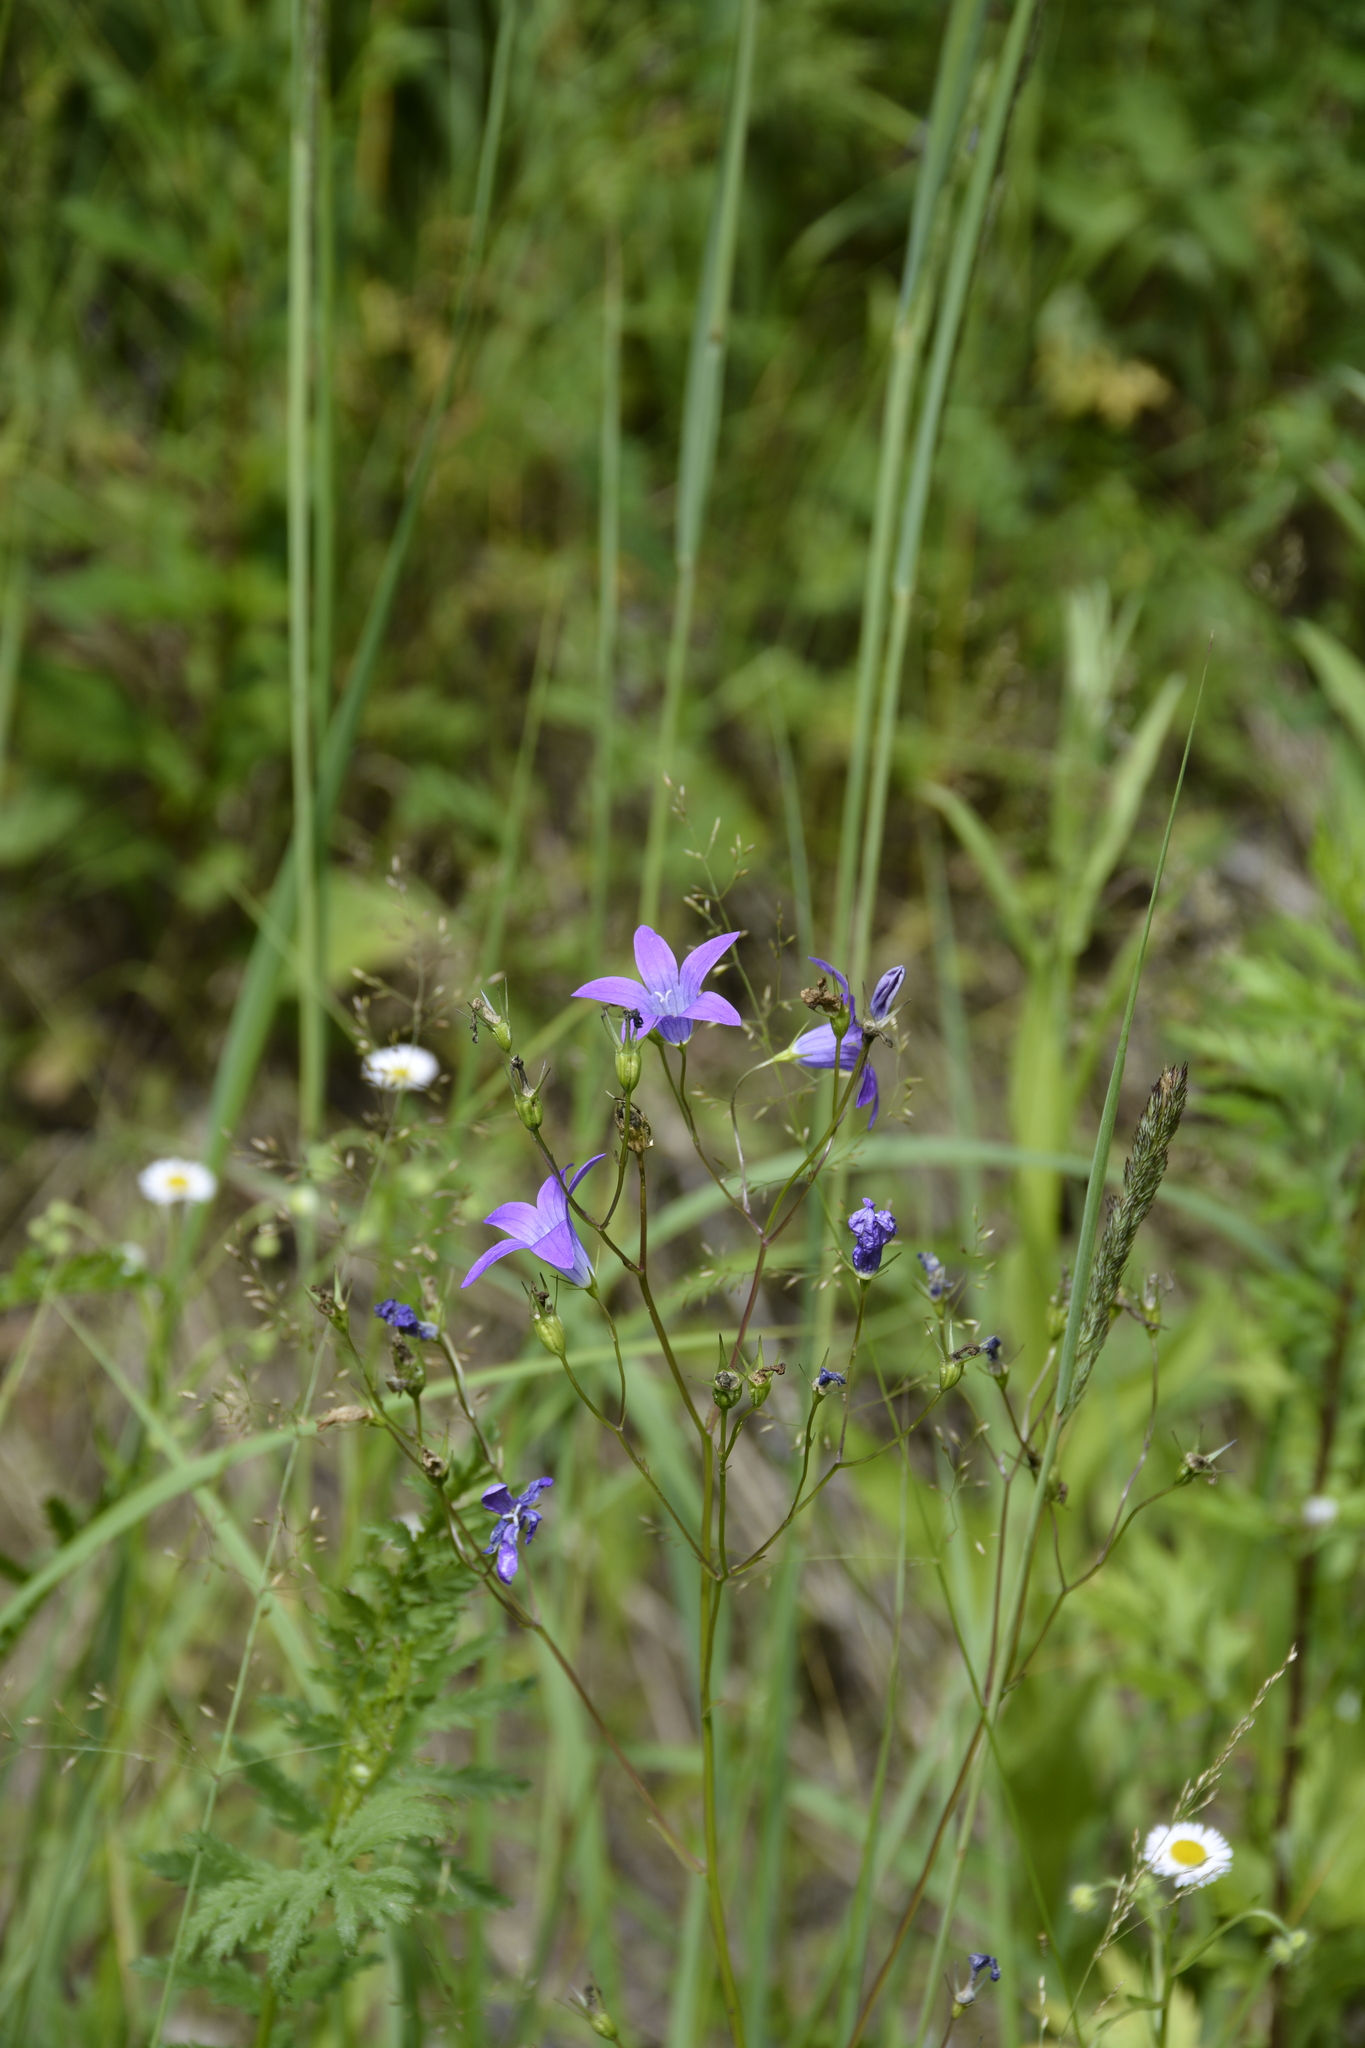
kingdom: Plantae
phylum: Tracheophyta
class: Magnoliopsida
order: Asterales
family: Campanulaceae
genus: Campanula
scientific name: Campanula patula
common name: Spreading bellflower
